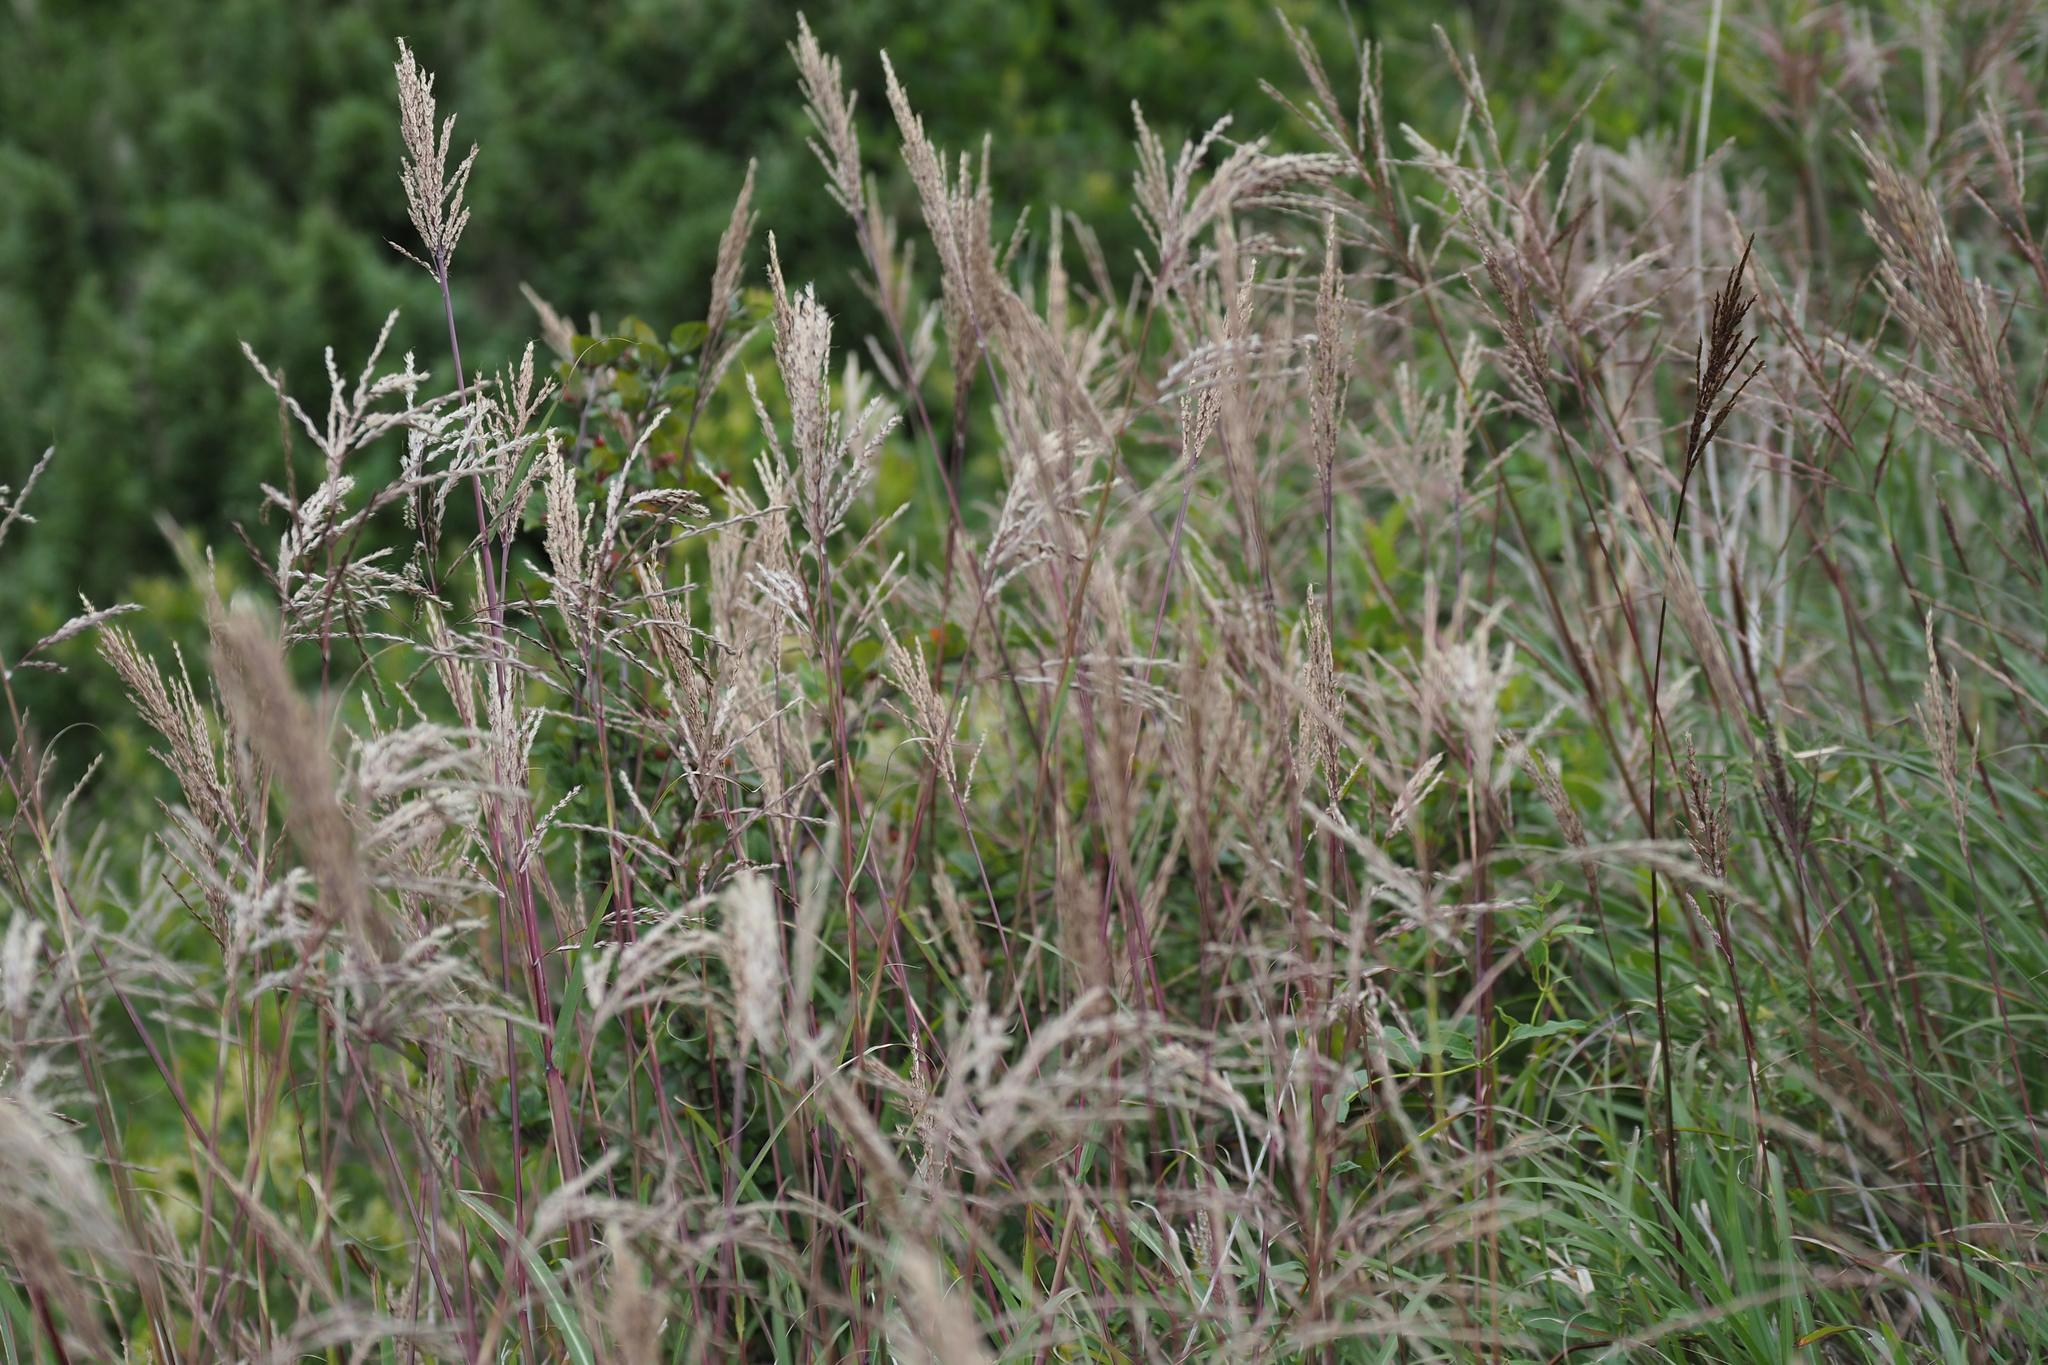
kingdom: Plantae
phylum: Tracheophyta
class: Liliopsida
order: Poales
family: Poaceae
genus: Miscanthus
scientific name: Miscanthus sinensis
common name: Chinese silvergrass
